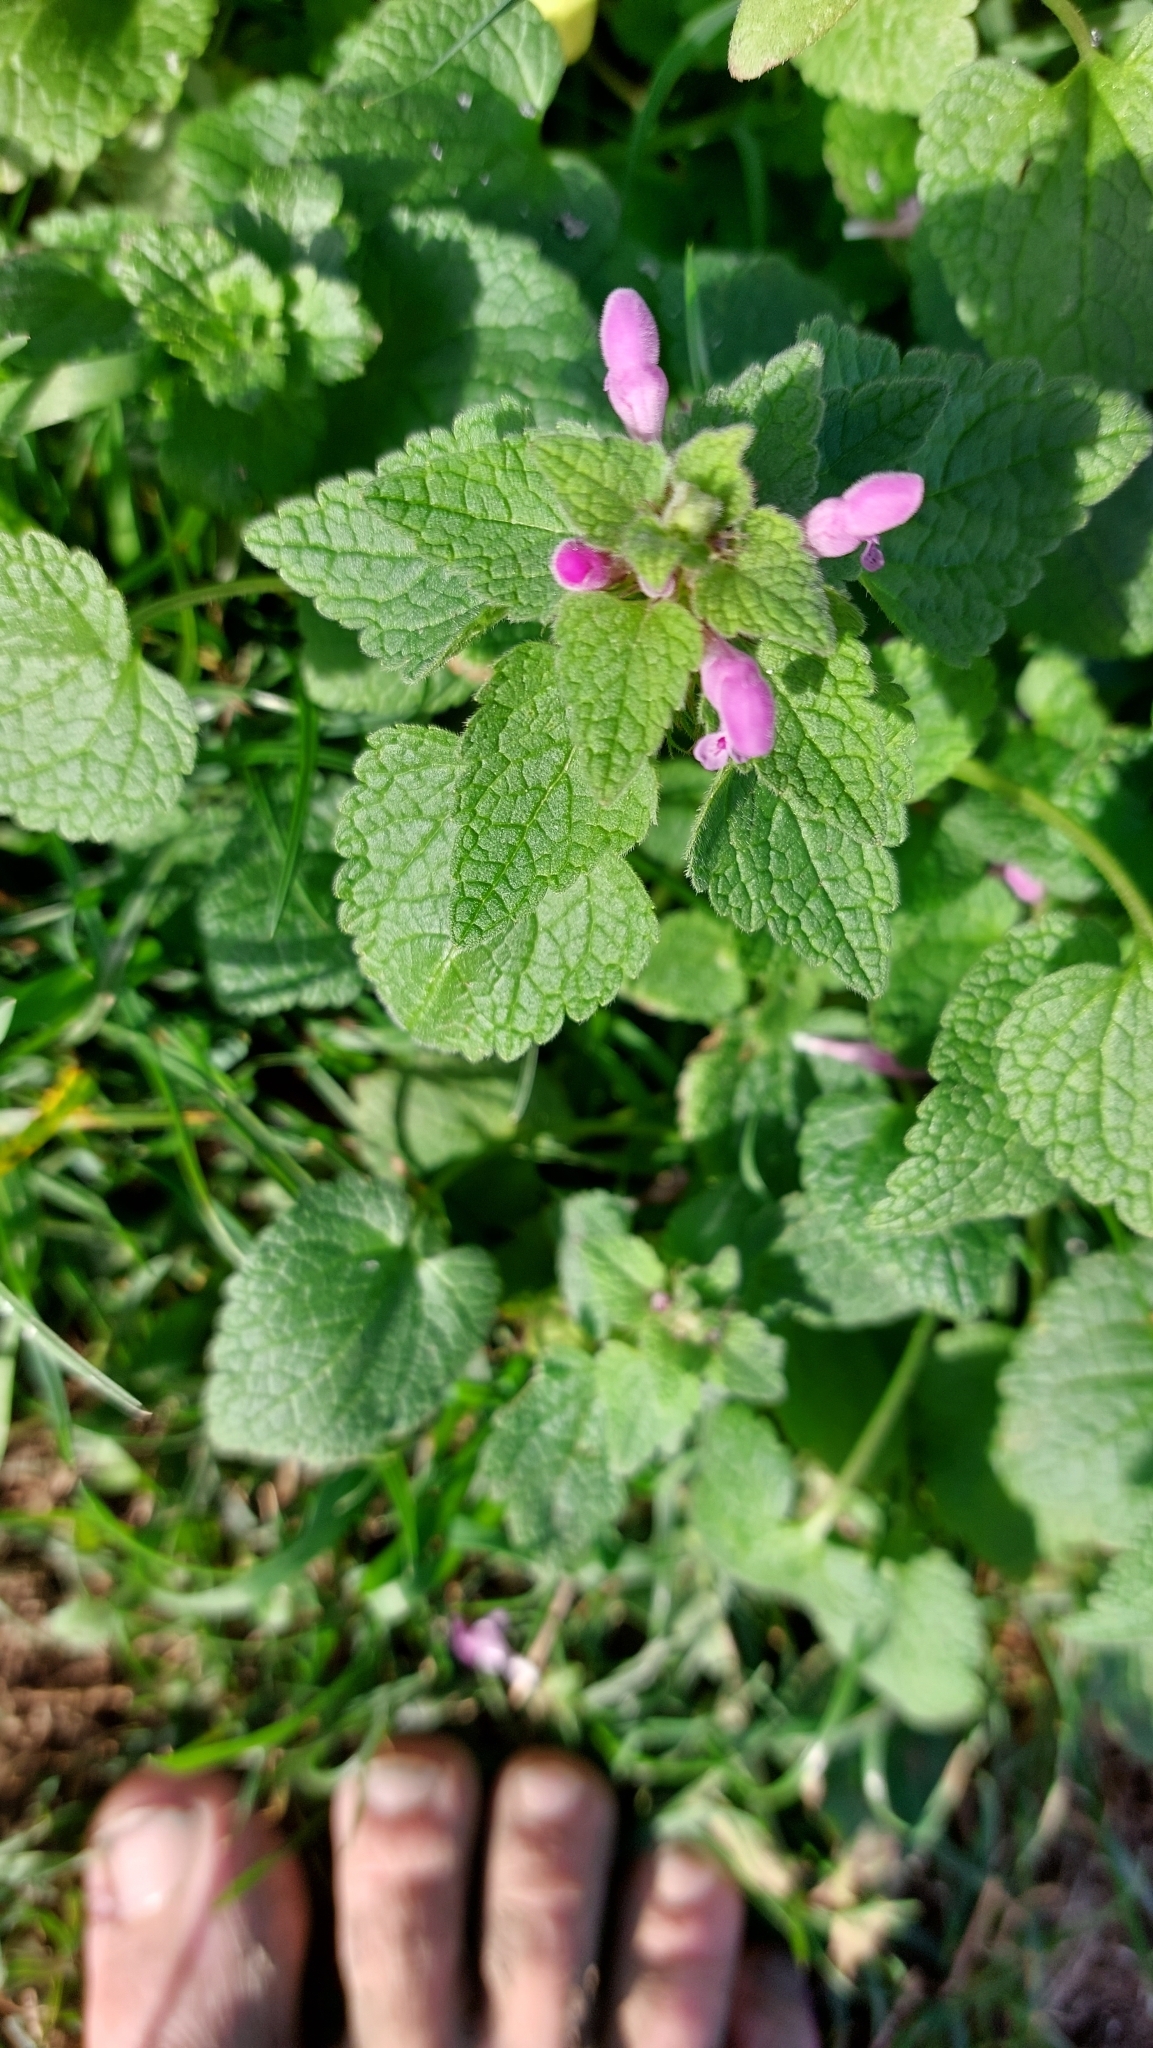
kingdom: Plantae
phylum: Tracheophyta
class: Magnoliopsida
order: Lamiales
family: Lamiaceae
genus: Lamium
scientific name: Lamium purpureum
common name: Red dead-nettle
